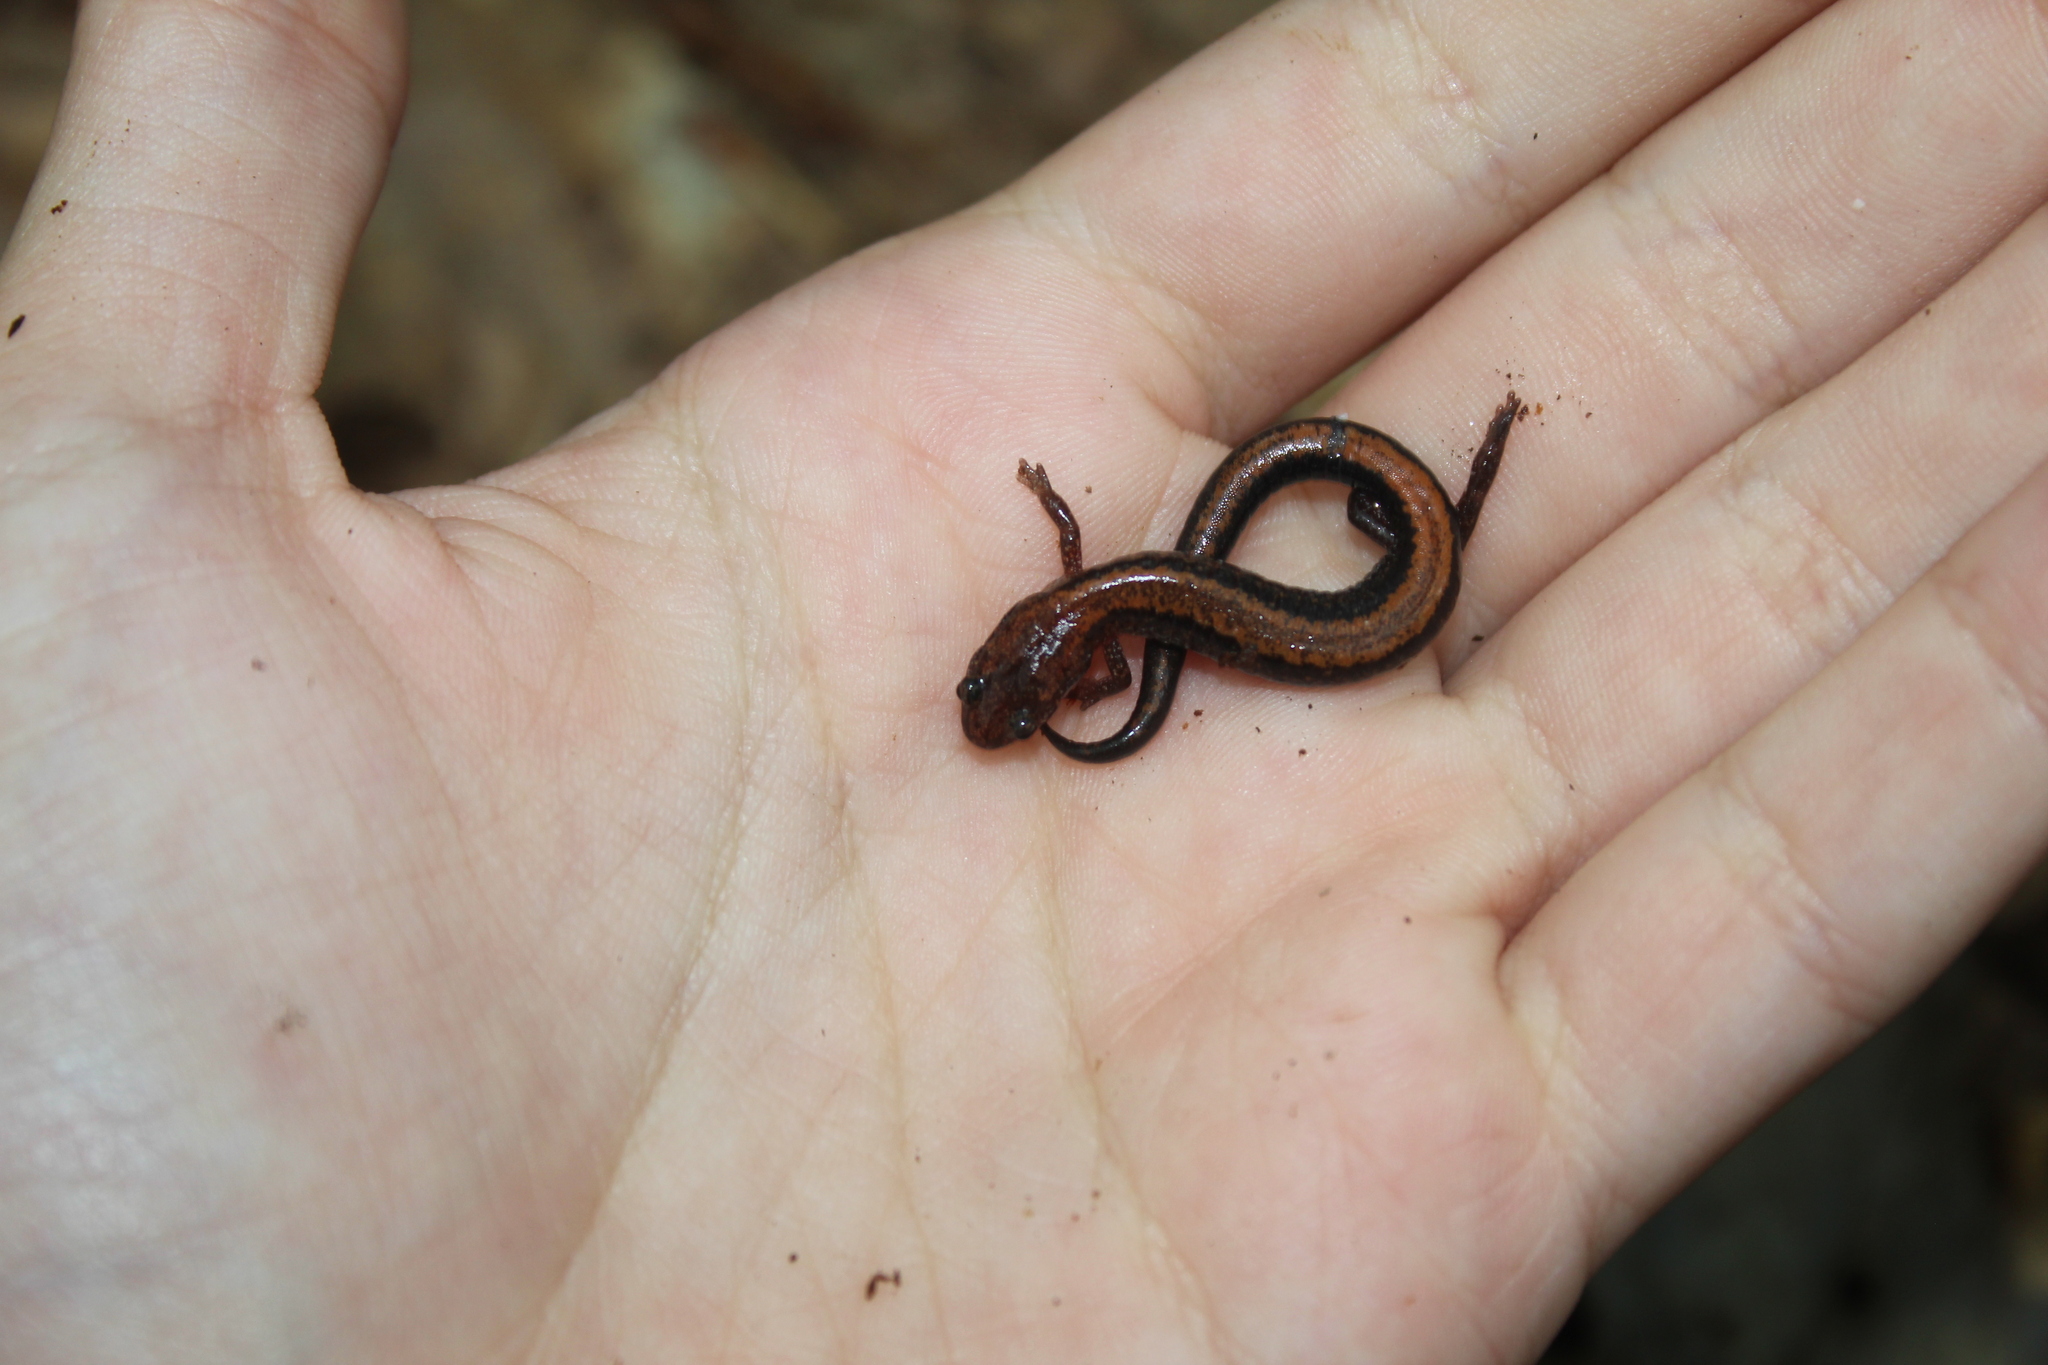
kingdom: Animalia
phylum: Chordata
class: Amphibia
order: Caudata
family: Plethodontidae
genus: Plethodon
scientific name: Plethodon cinereus
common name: Redback salamander
